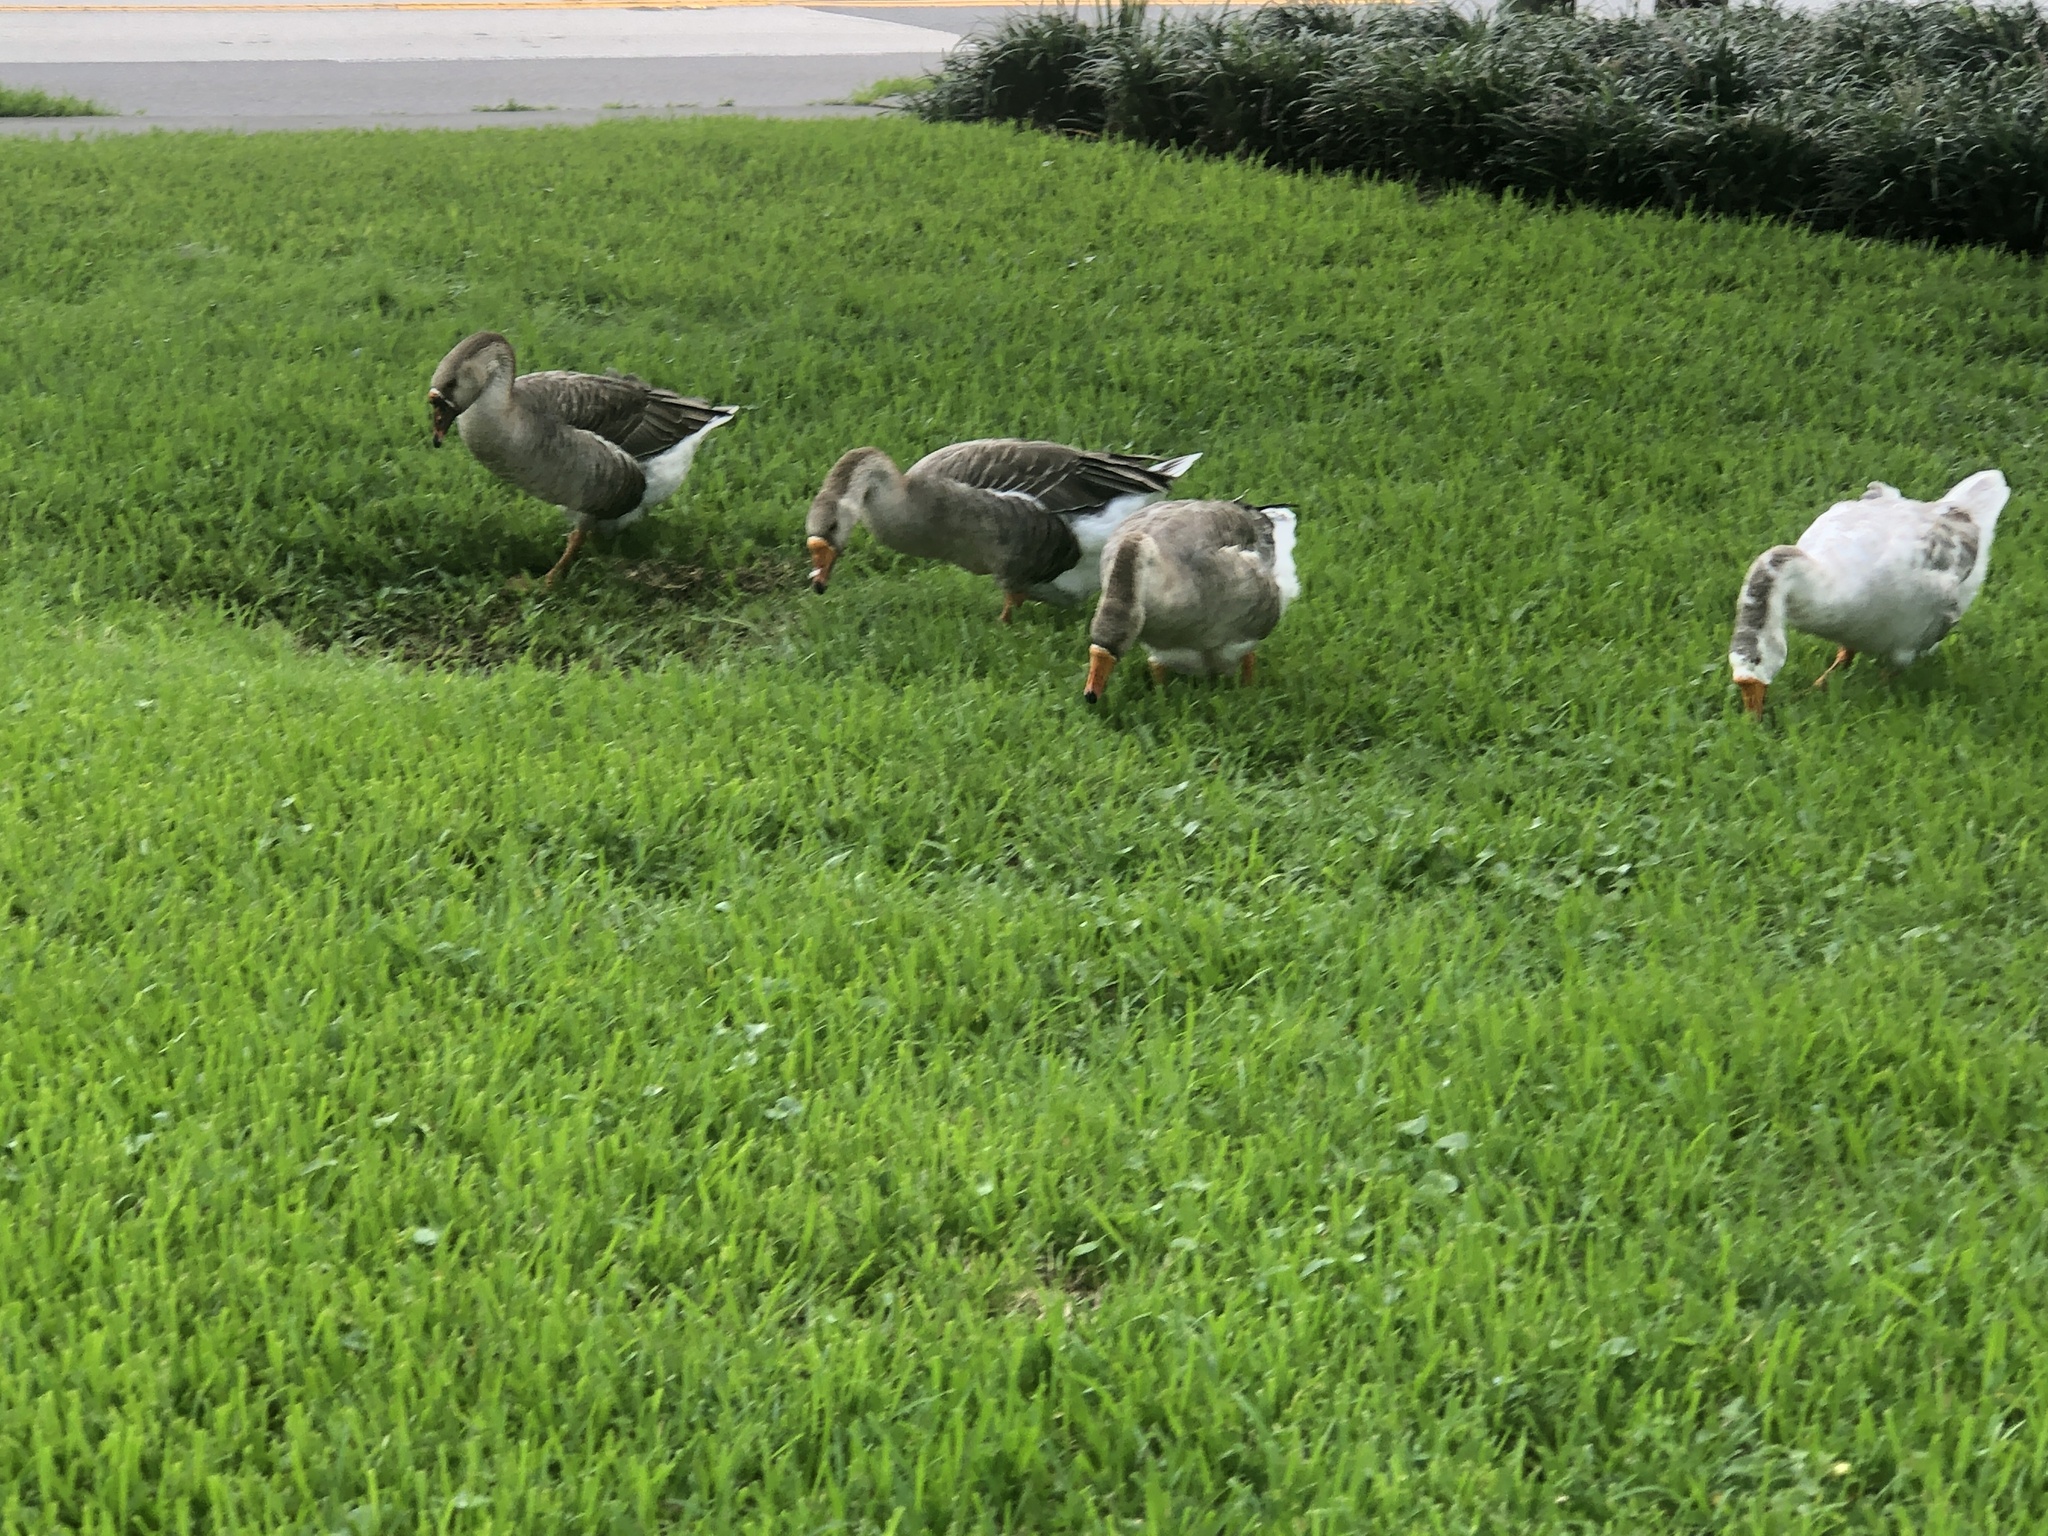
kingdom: Animalia
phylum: Chordata
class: Aves
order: Anseriformes
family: Anatidae
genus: Anser
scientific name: Anser cygnoides
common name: Swan goose
